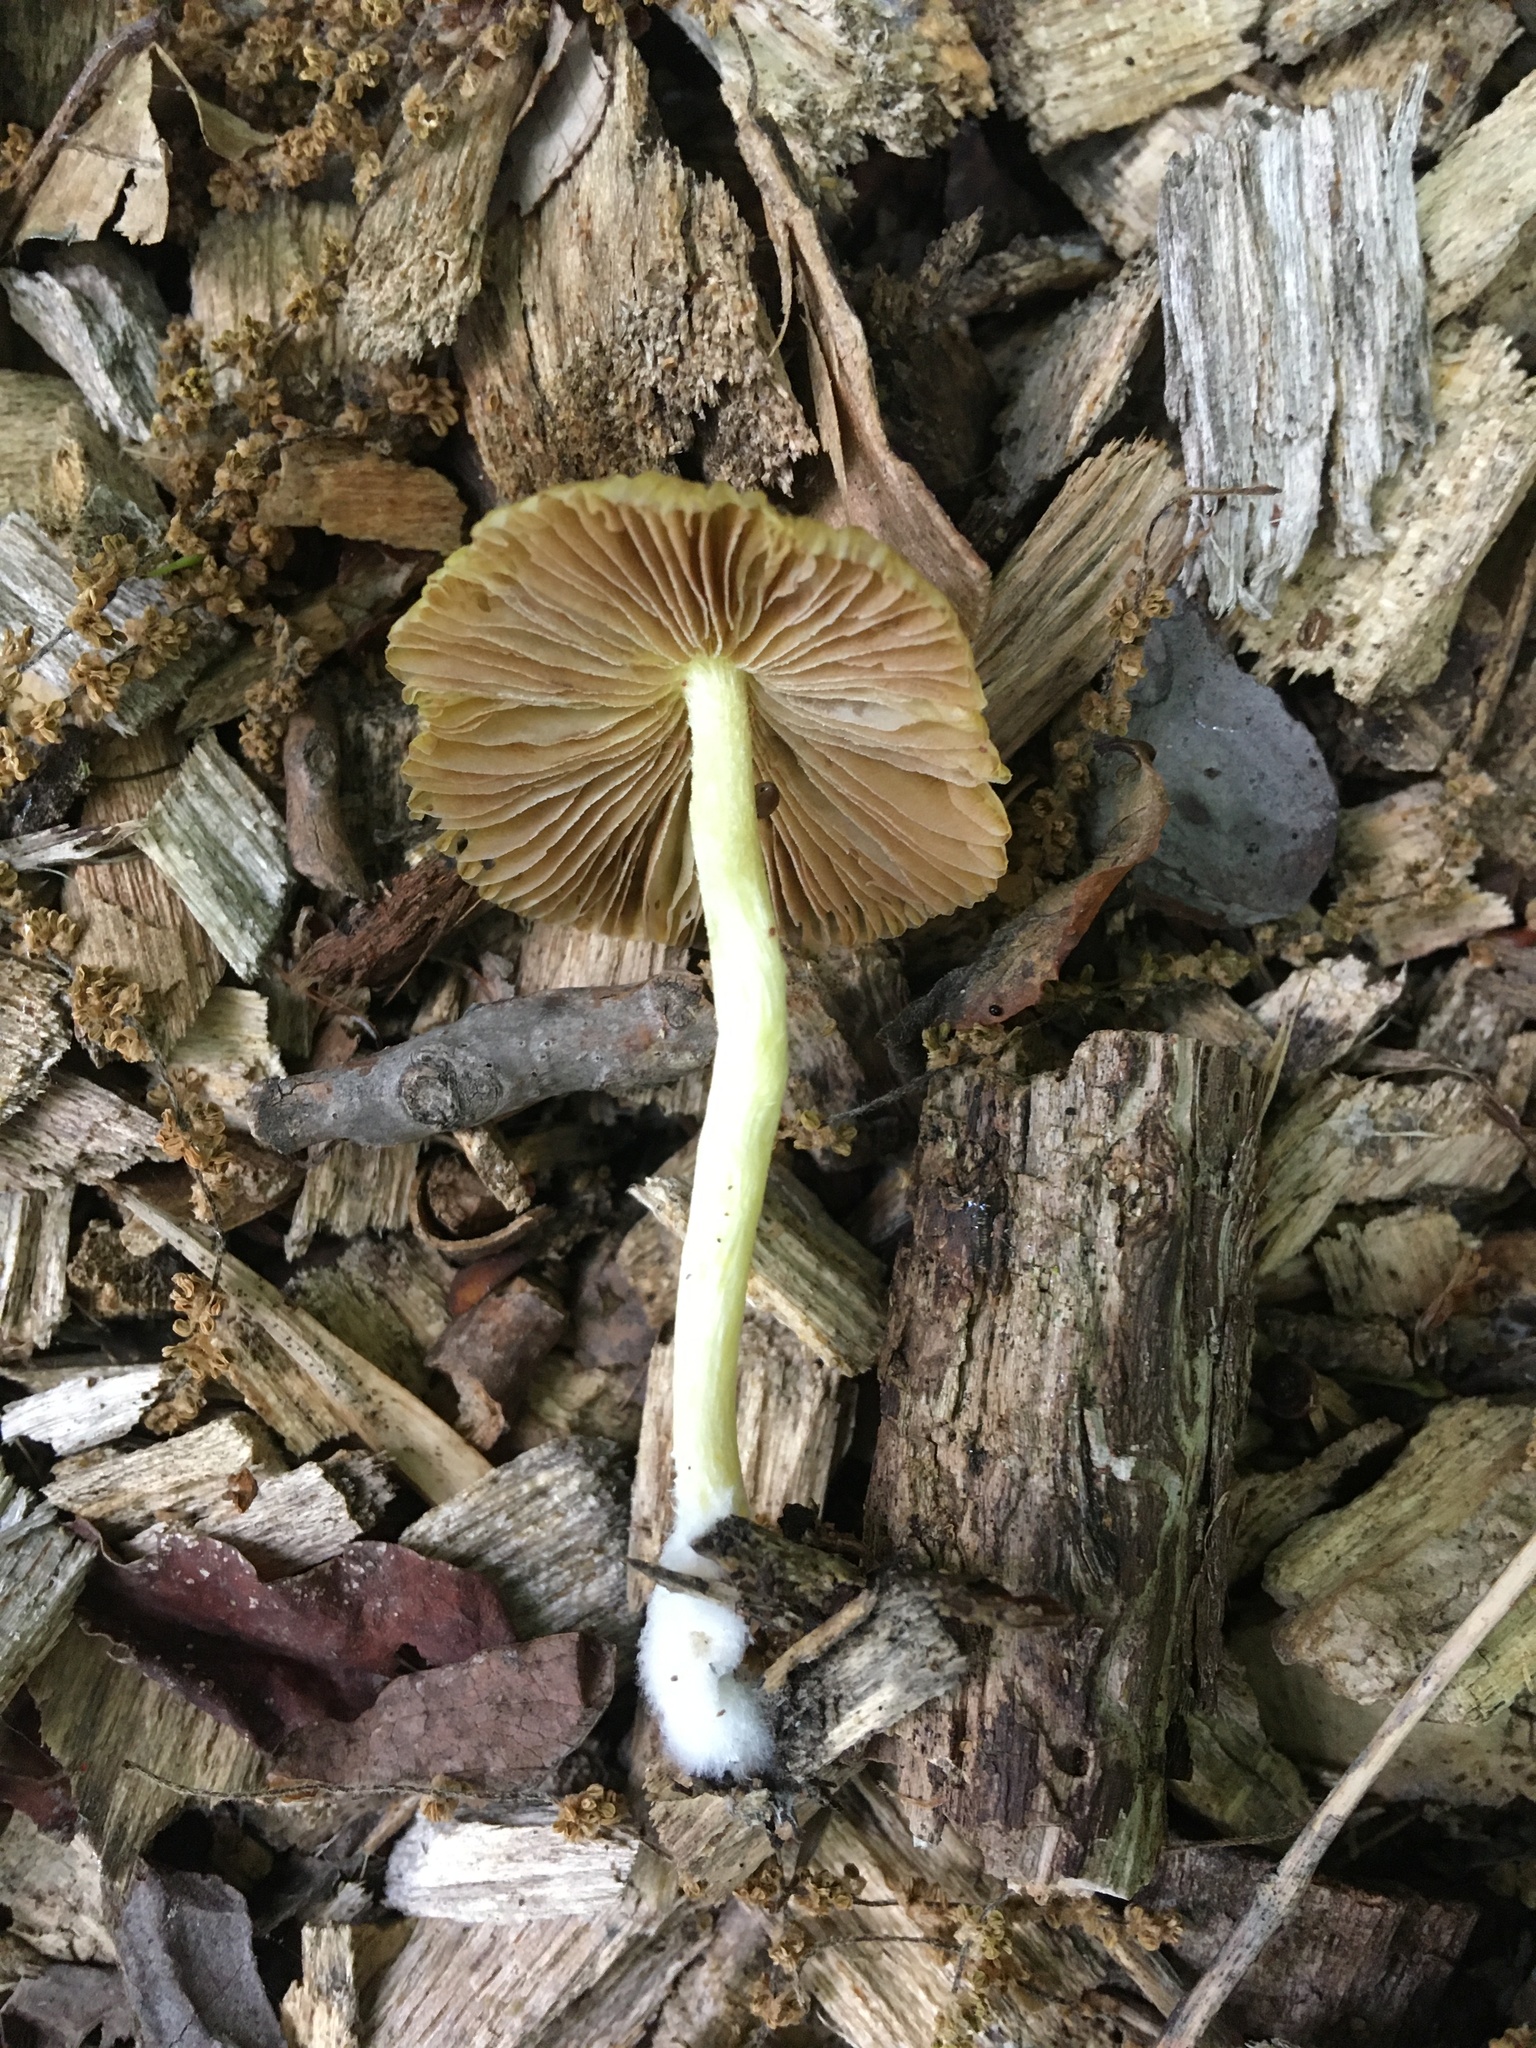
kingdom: Fungi
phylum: Basidiomycota
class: Agaricomycetes
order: Agaricales
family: Bolbitiaceae
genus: Bolbitius
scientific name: Bolbitius titubans
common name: Yellow fieldcap
